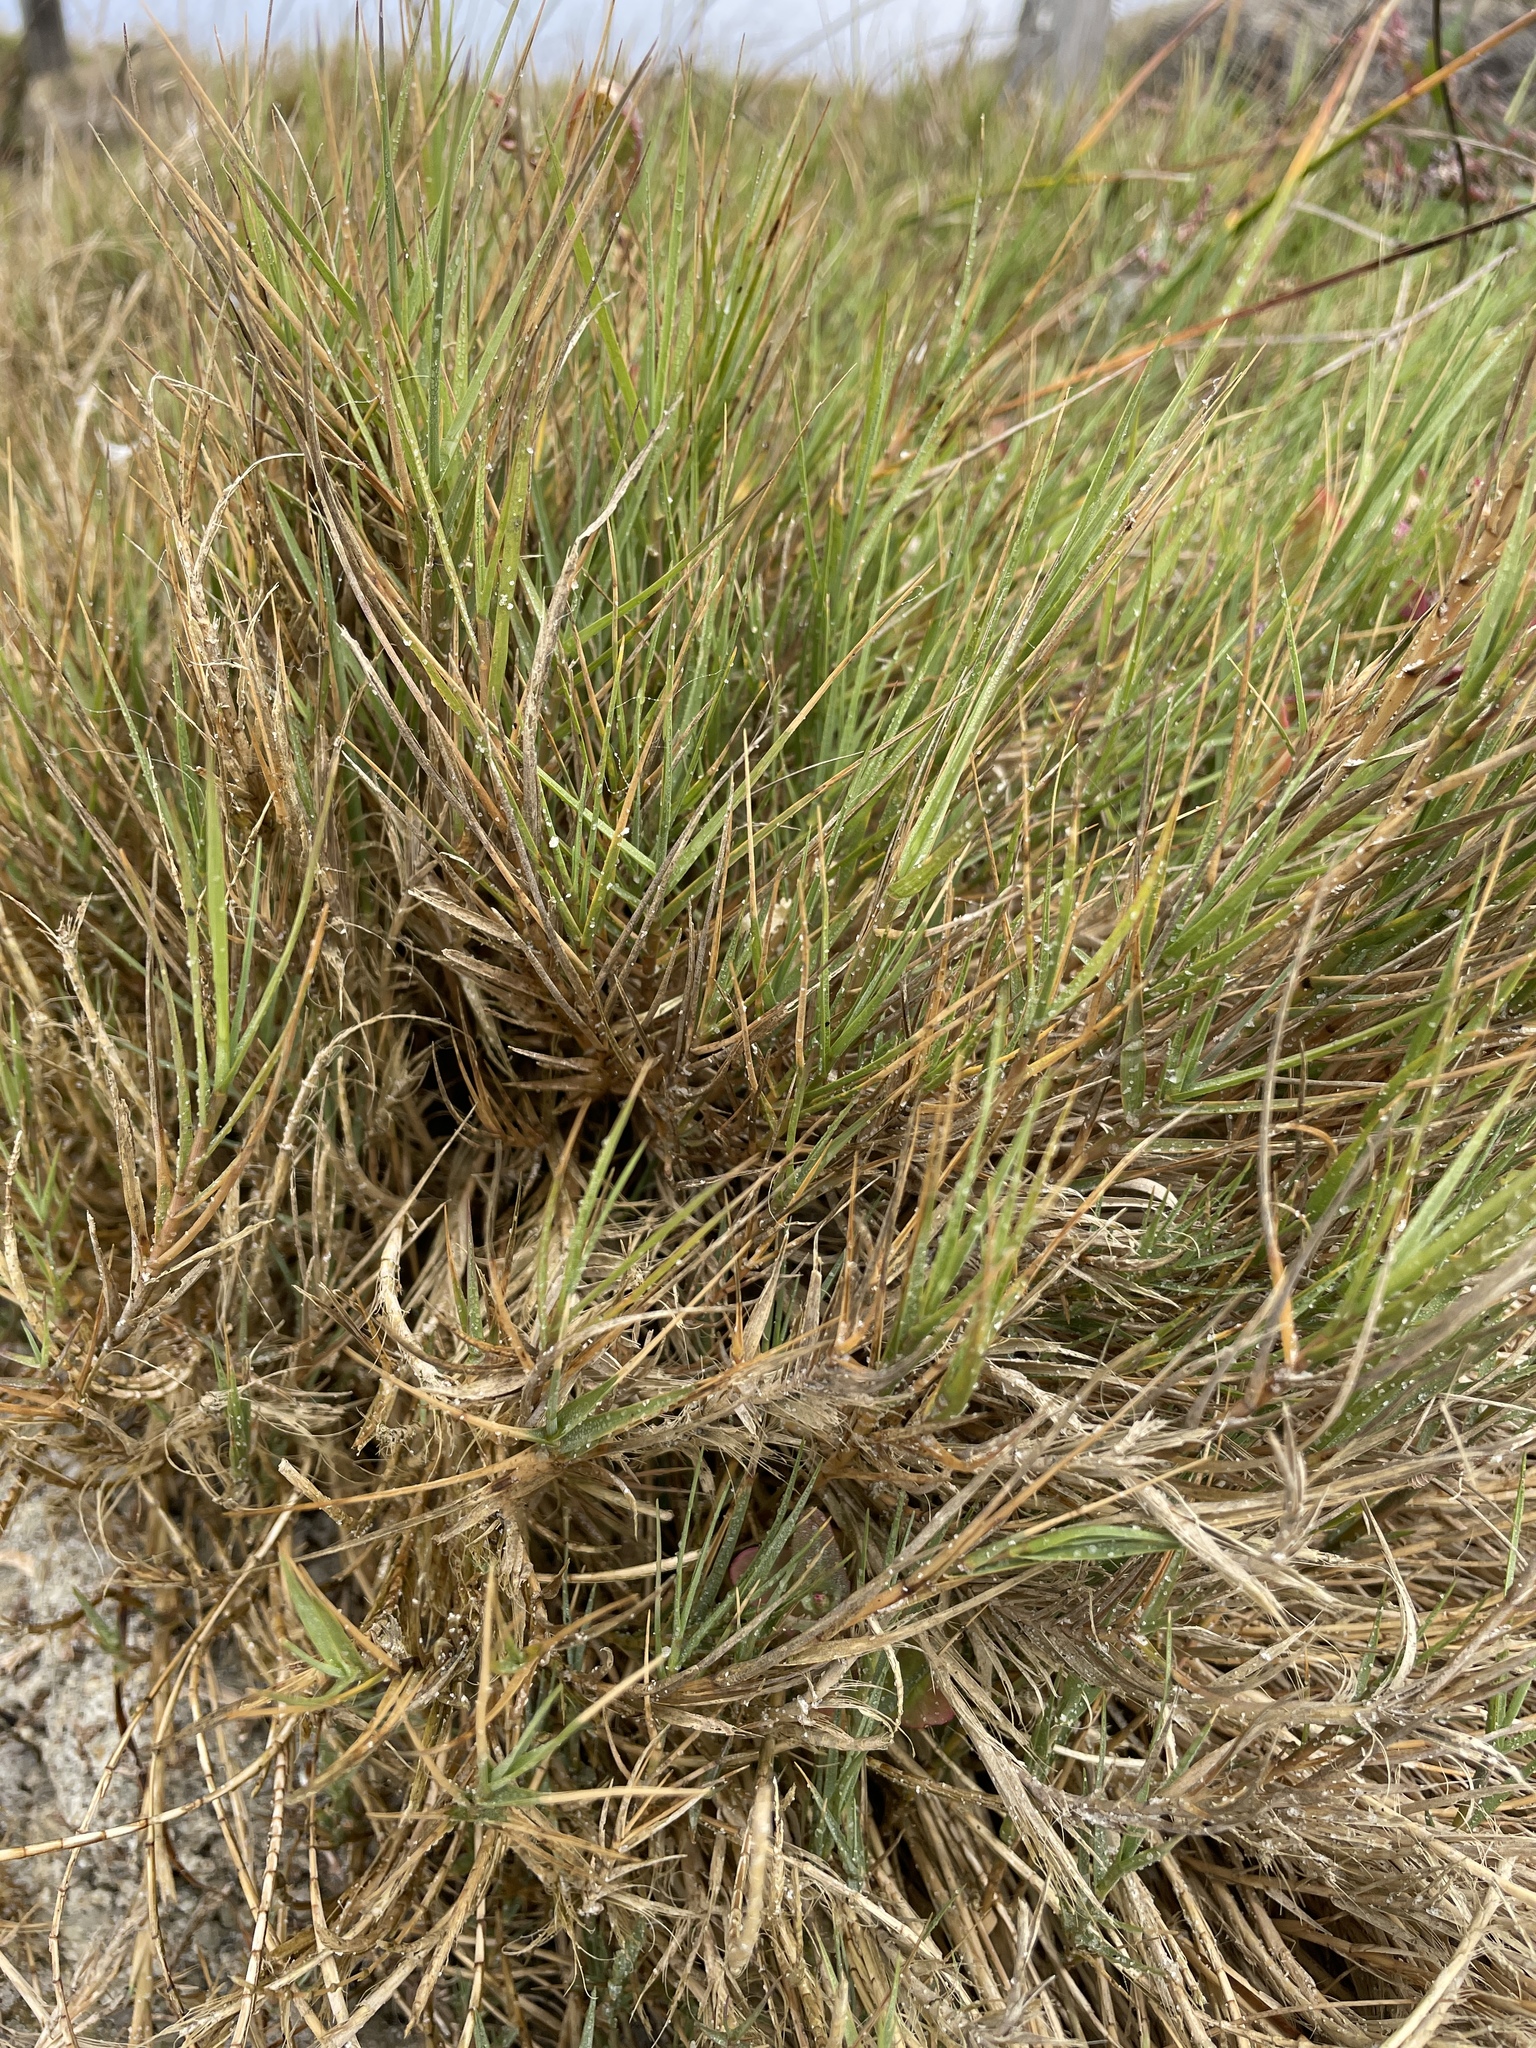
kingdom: Plantae
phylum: Tracheophyta
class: Liliopsida
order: Poales
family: Poaceae
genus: Distichlis
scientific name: Distichlis spicata
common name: Saltgrass
